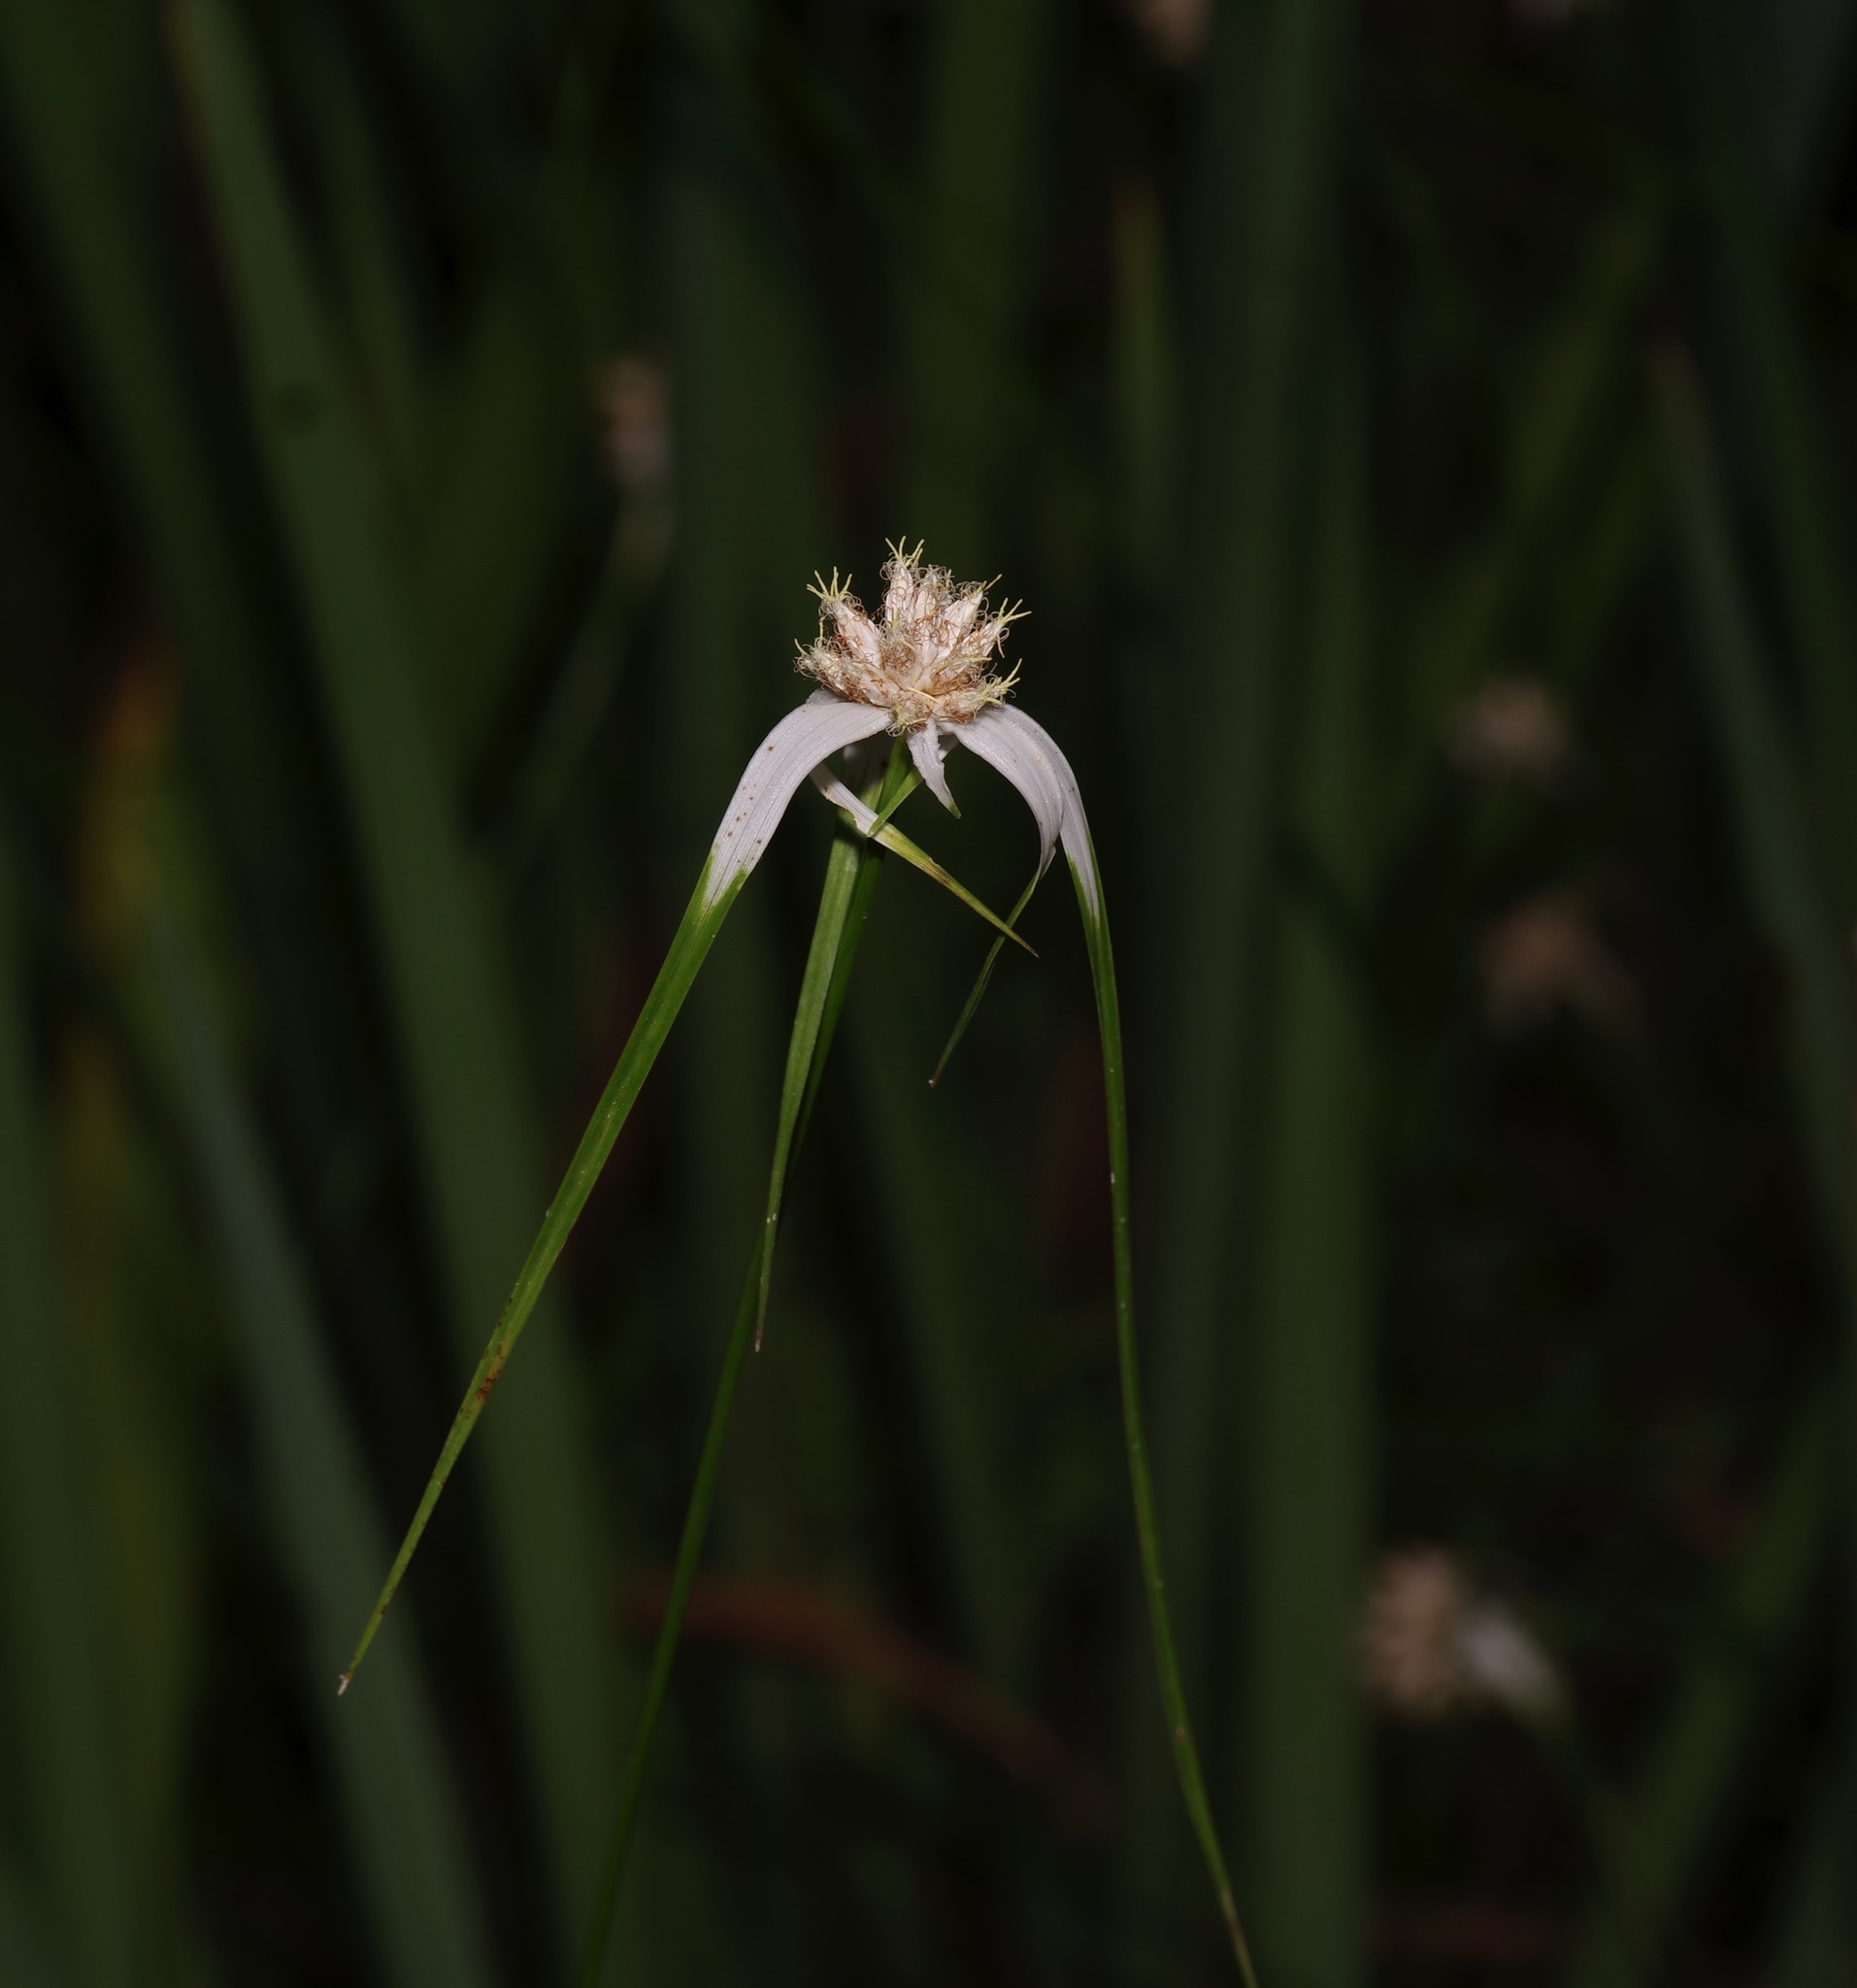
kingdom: Plantae
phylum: Tracheophyta
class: Liliopsida
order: Poales
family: Cyperaceae
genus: Rhynchospora
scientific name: Rhynchospora colorata
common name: Star sedge
